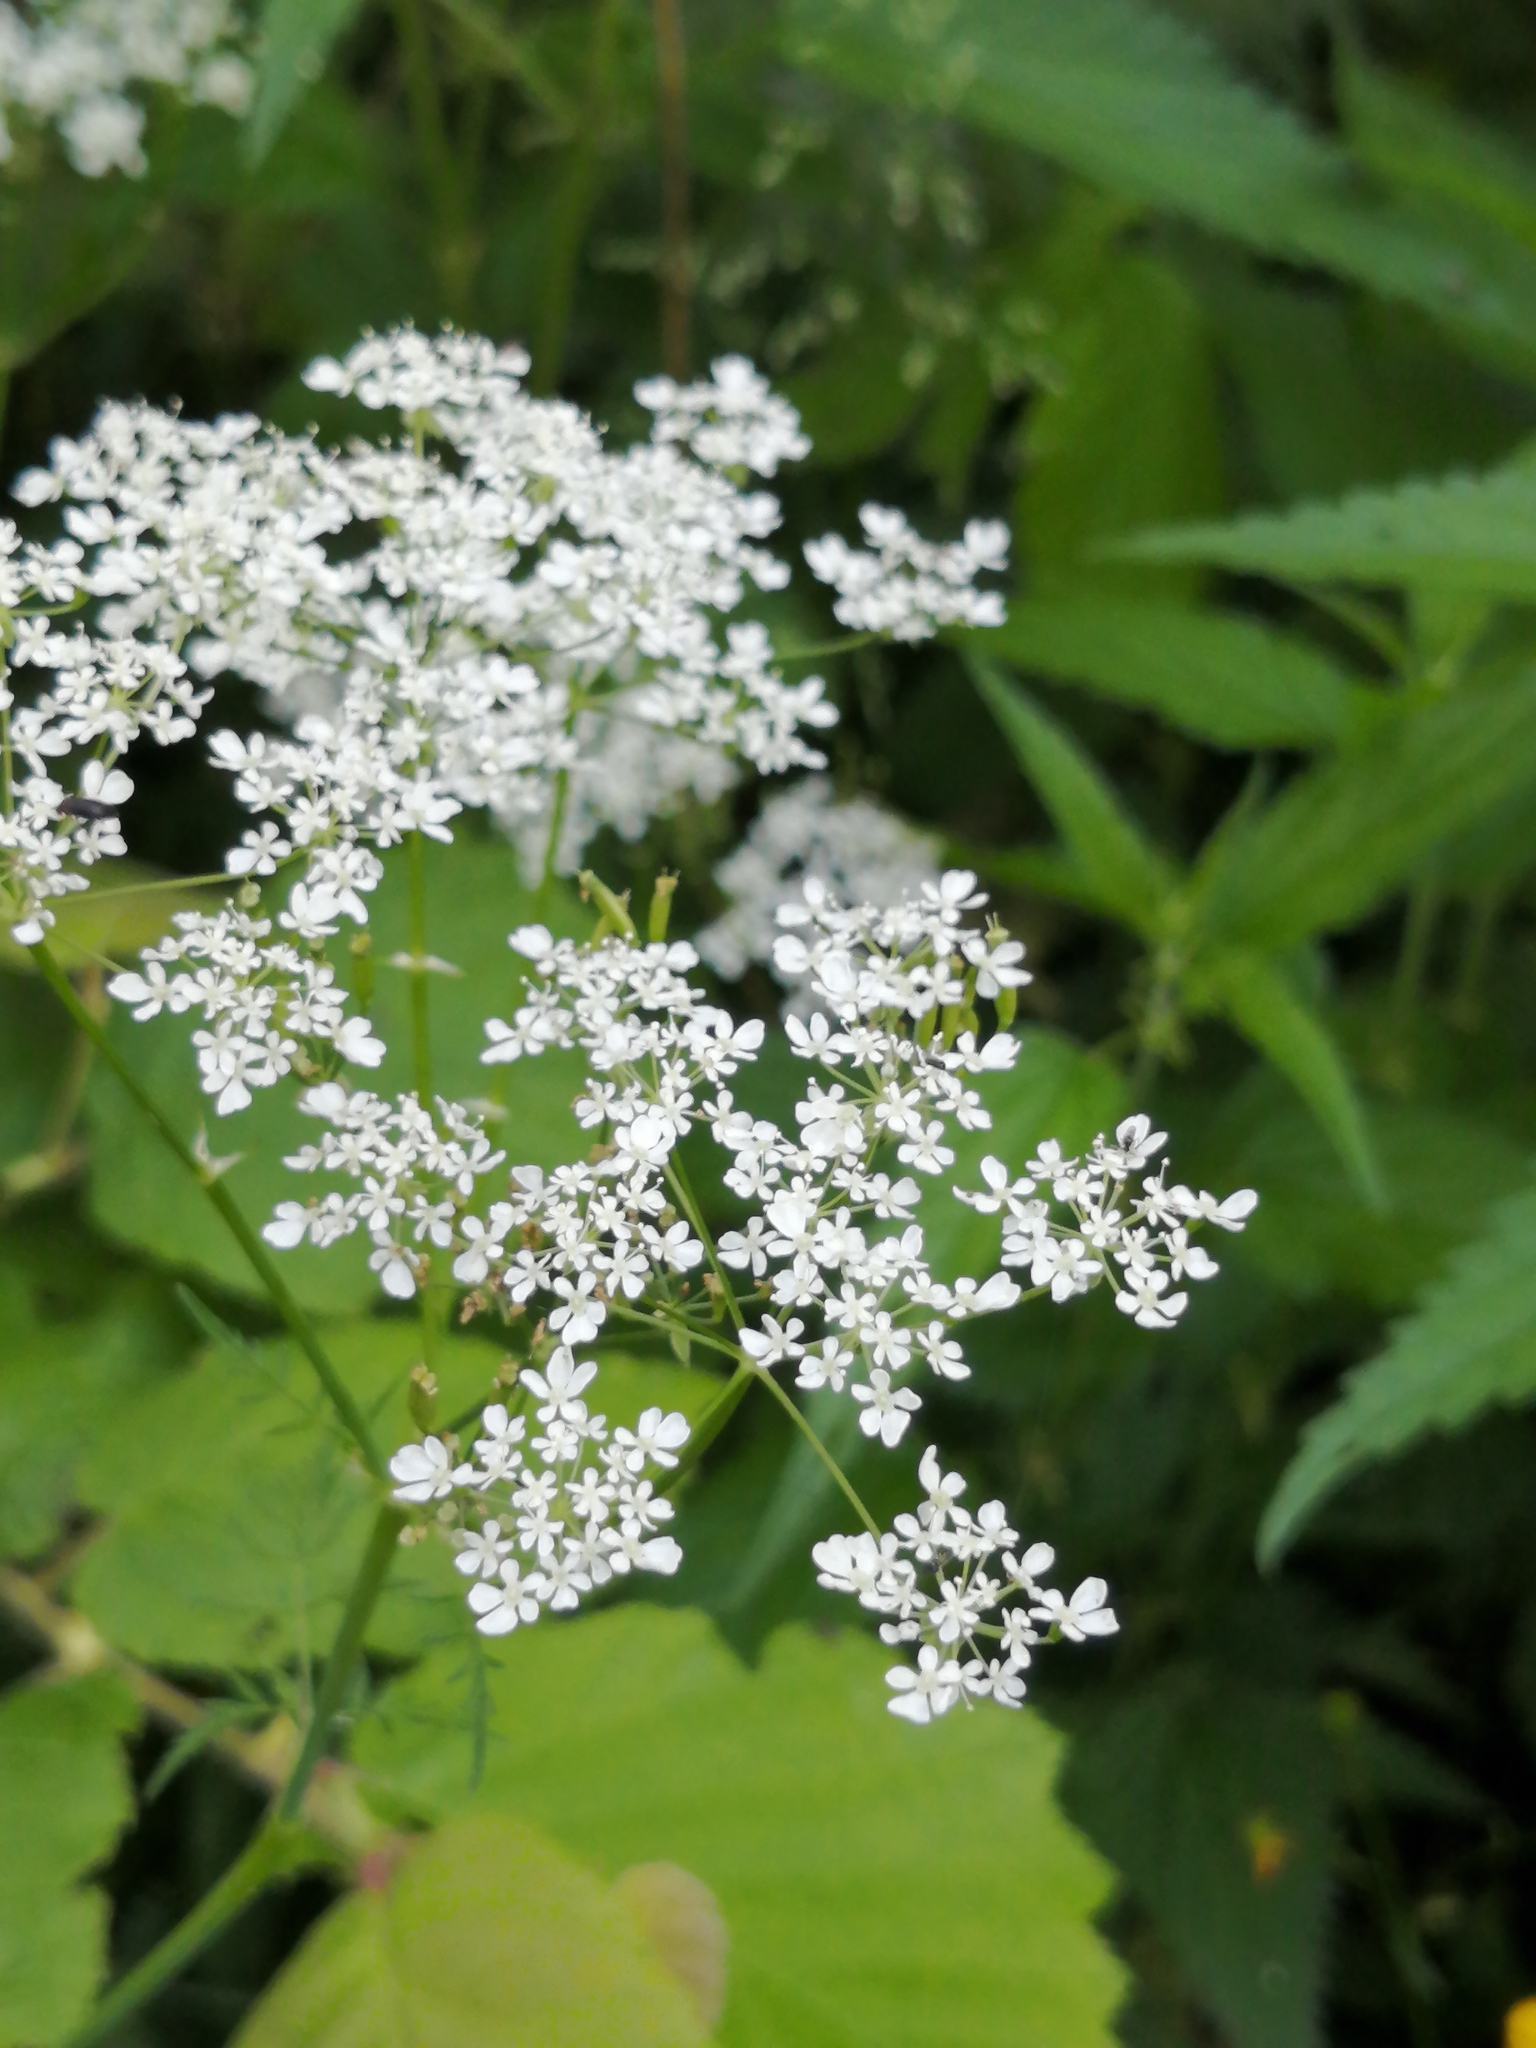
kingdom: Plantae
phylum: Tracheophyta
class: Magnoliopsida
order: Apiales
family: Apiaceae
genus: Anthriscus
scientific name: Anthriscus sylvestris
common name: Cow parsley
